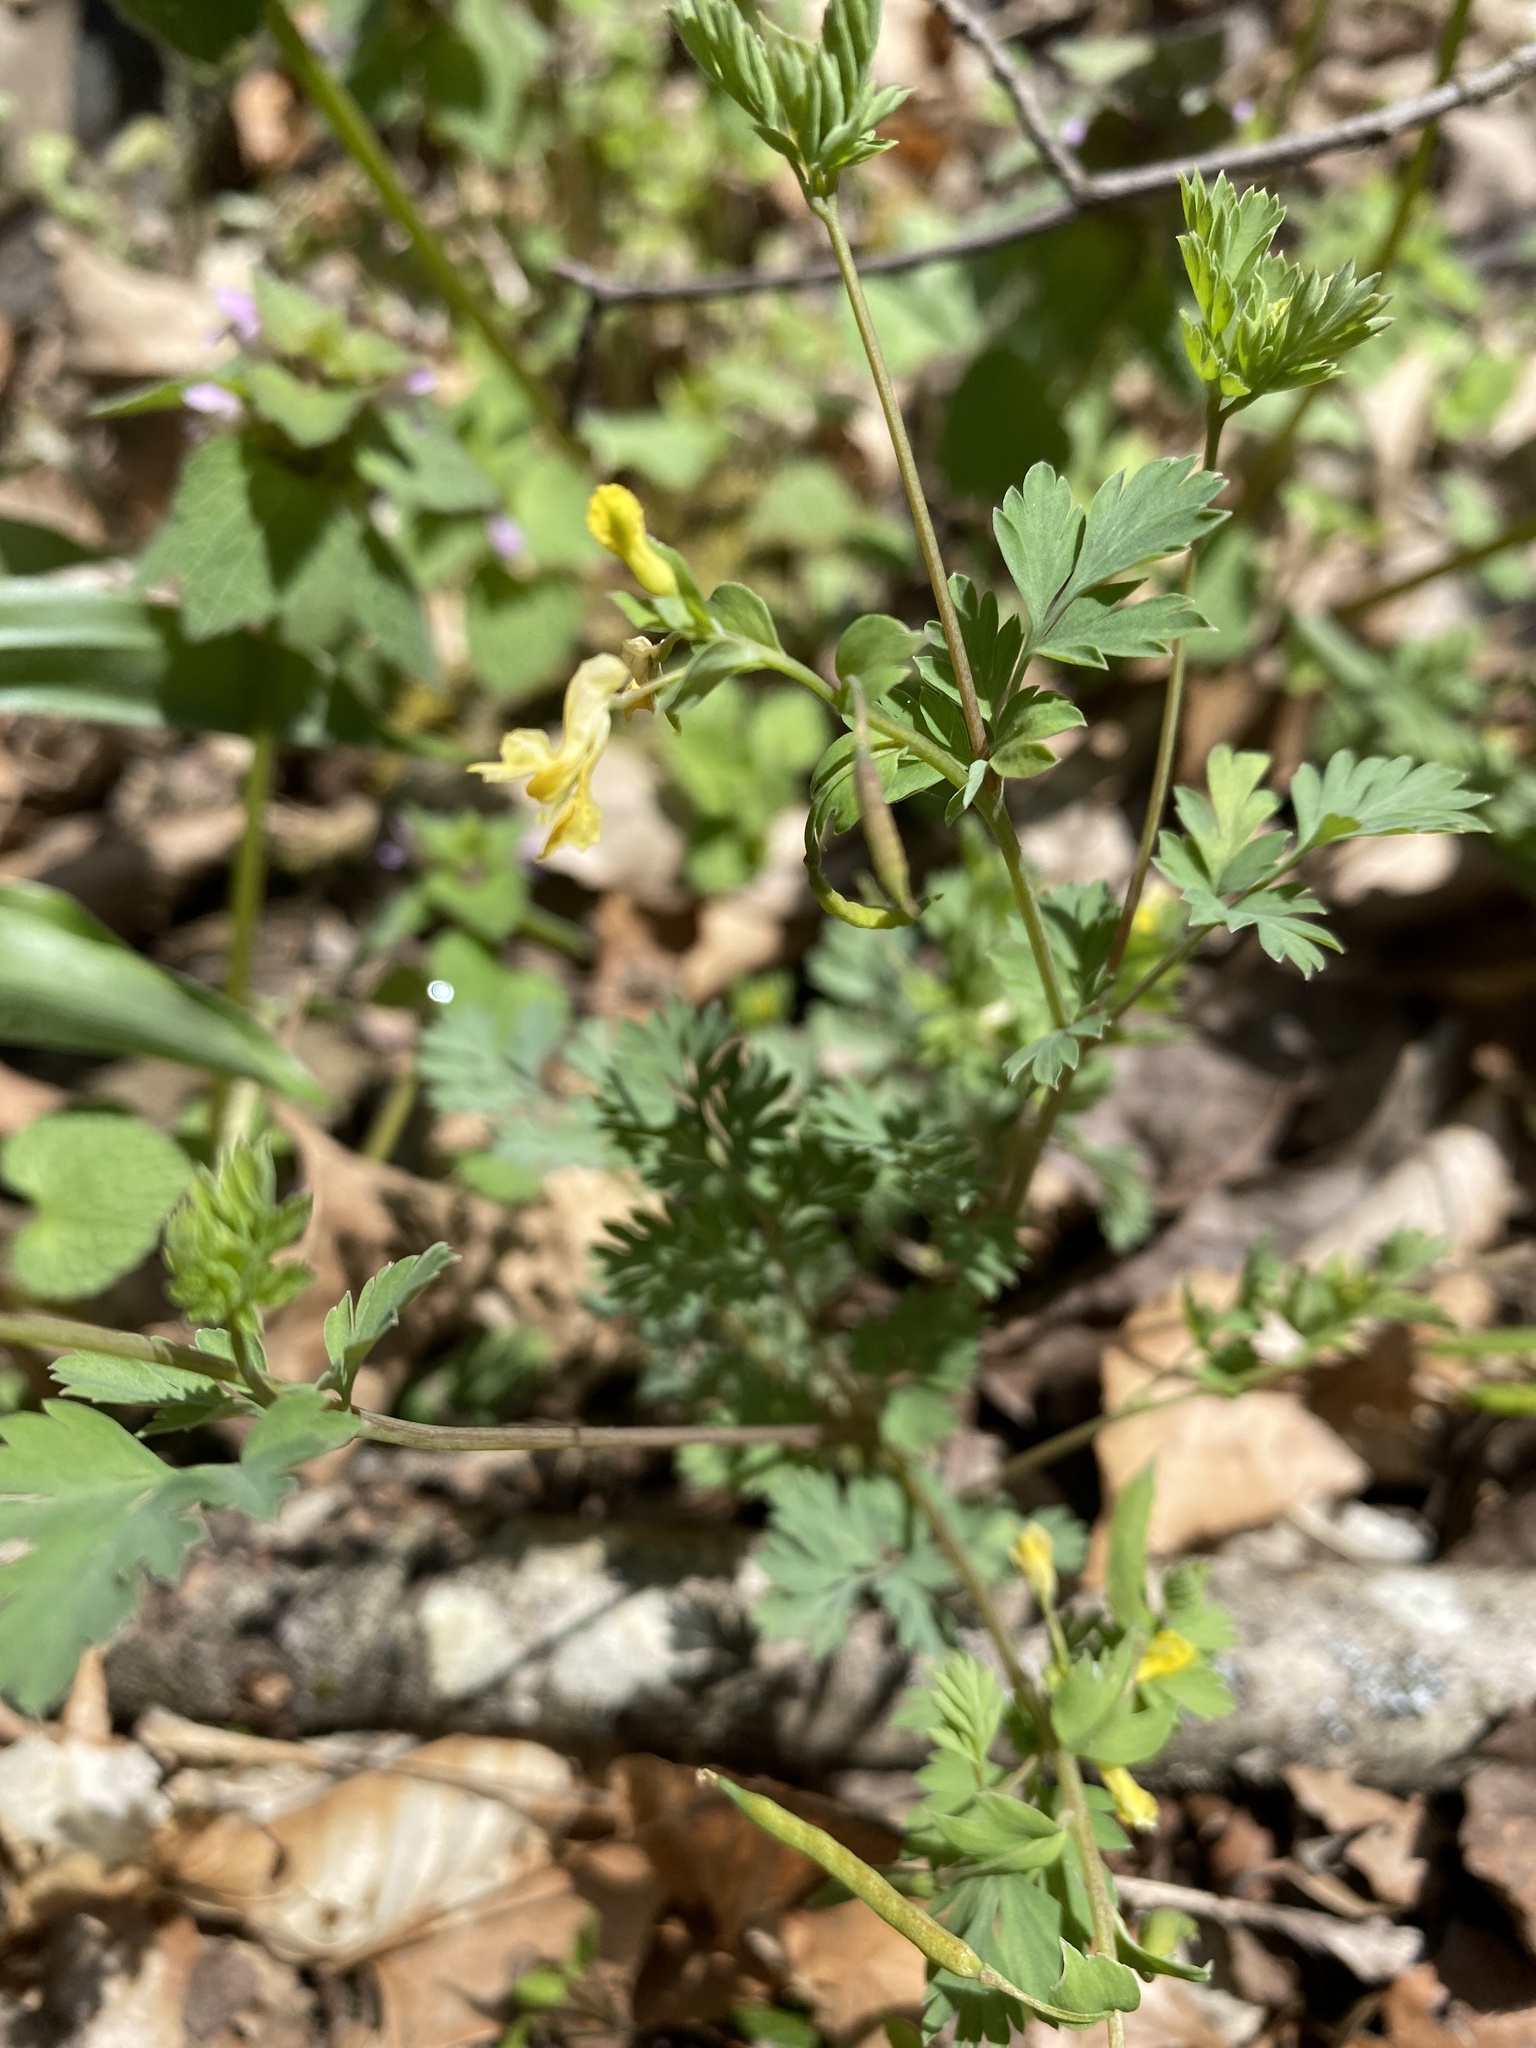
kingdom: Plantae
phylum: Tracheophyta
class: Magnoliopsida
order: Ranunculales
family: Papaveraceae
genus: Corydalis
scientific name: Corydalis flavula
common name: Yellow corydalis
